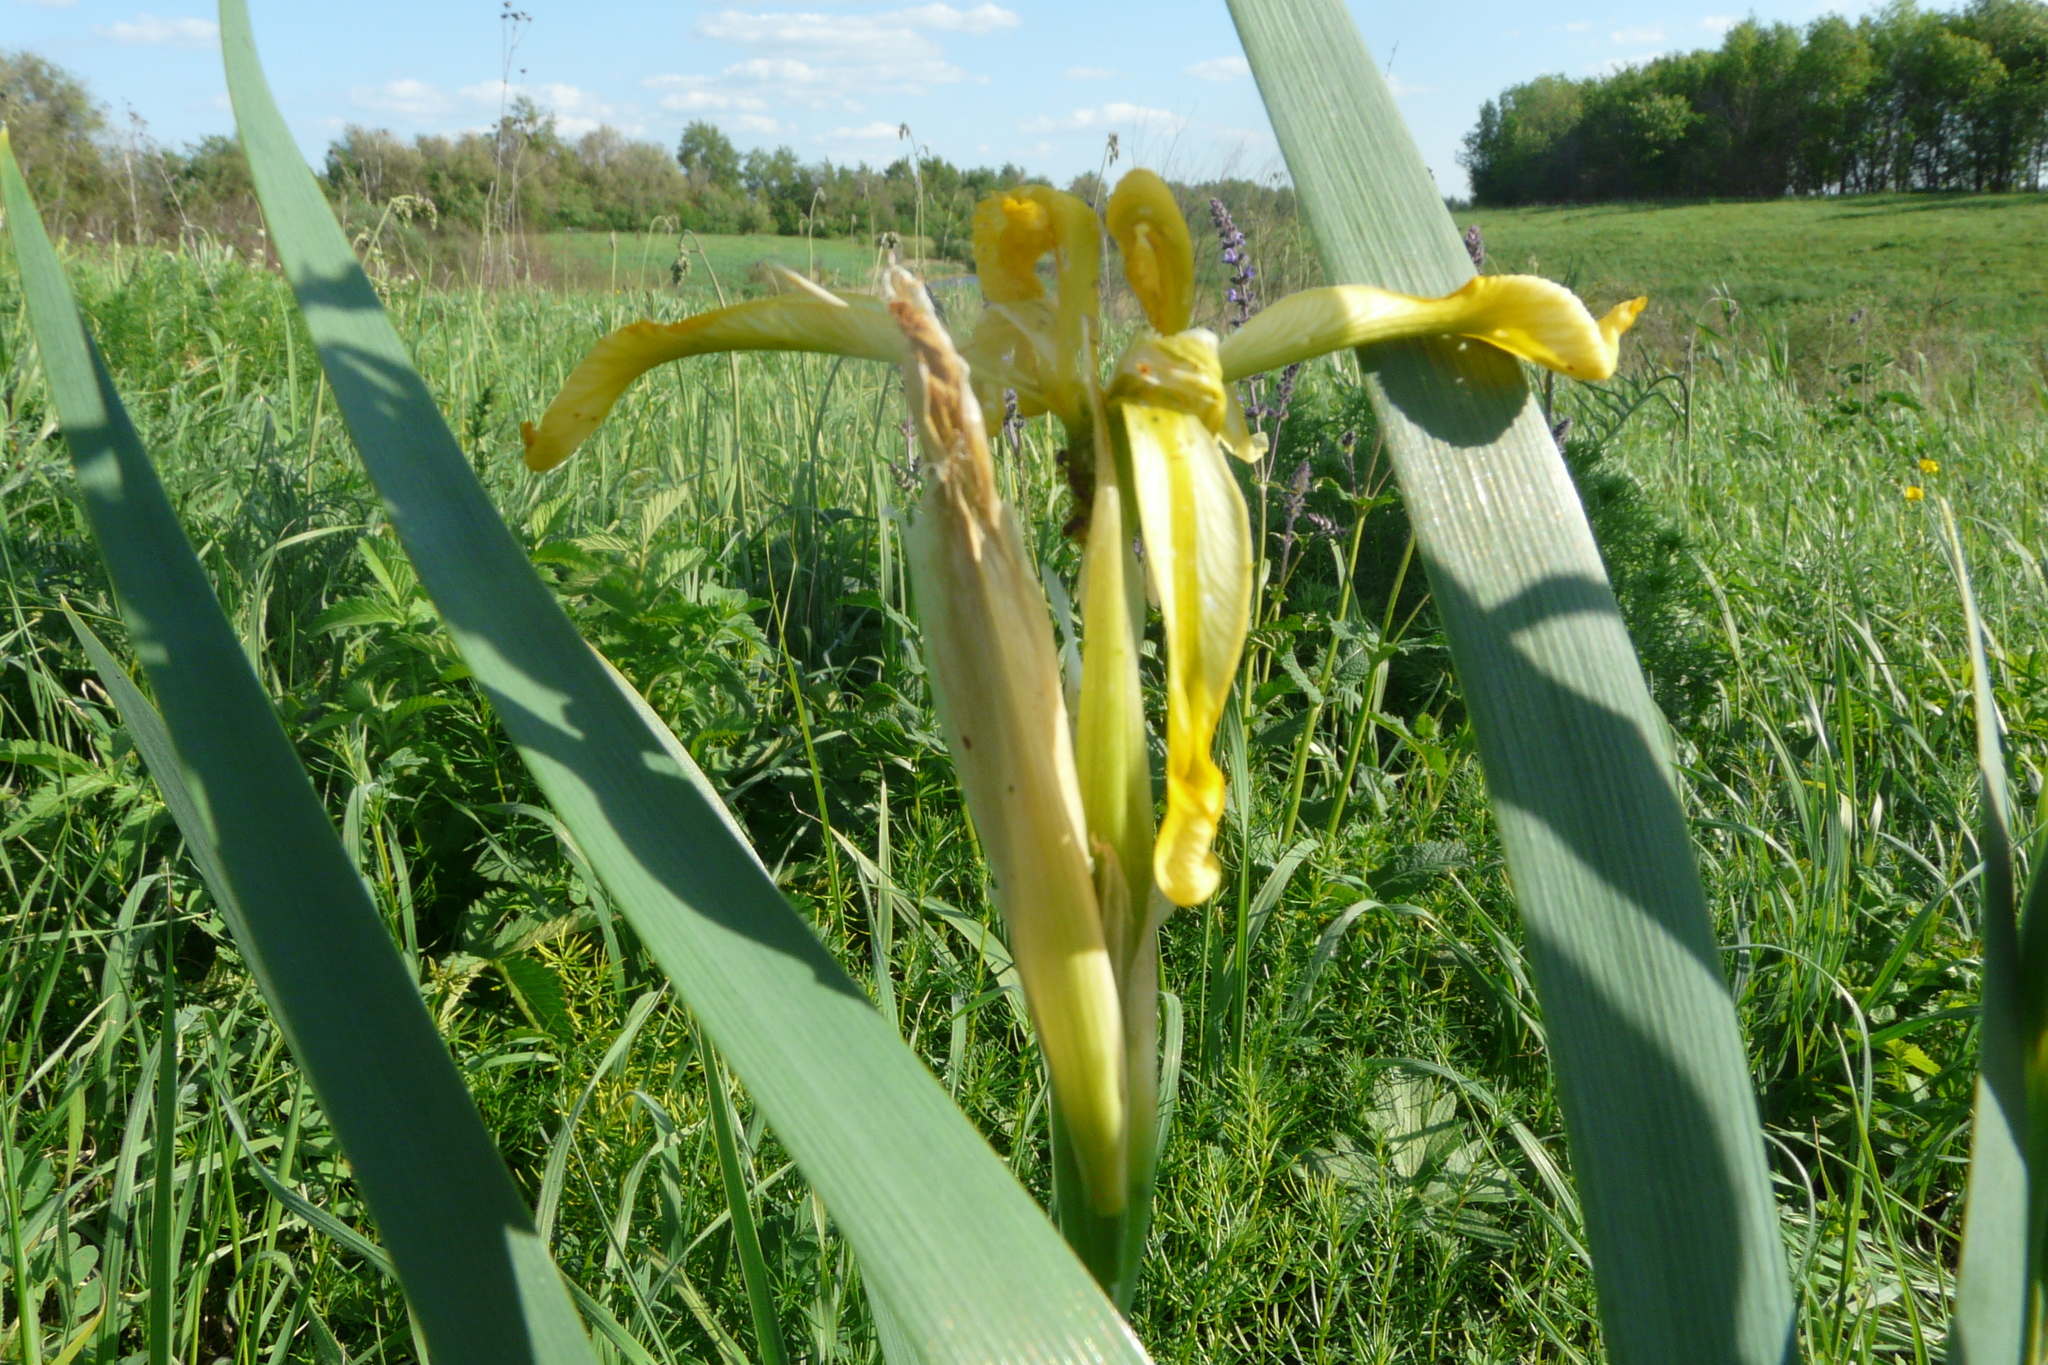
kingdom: Plantae
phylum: Tracheophyta
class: Liliopsida
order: Asparagales
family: Iridaceae
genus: Iris
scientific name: Iris halophila
